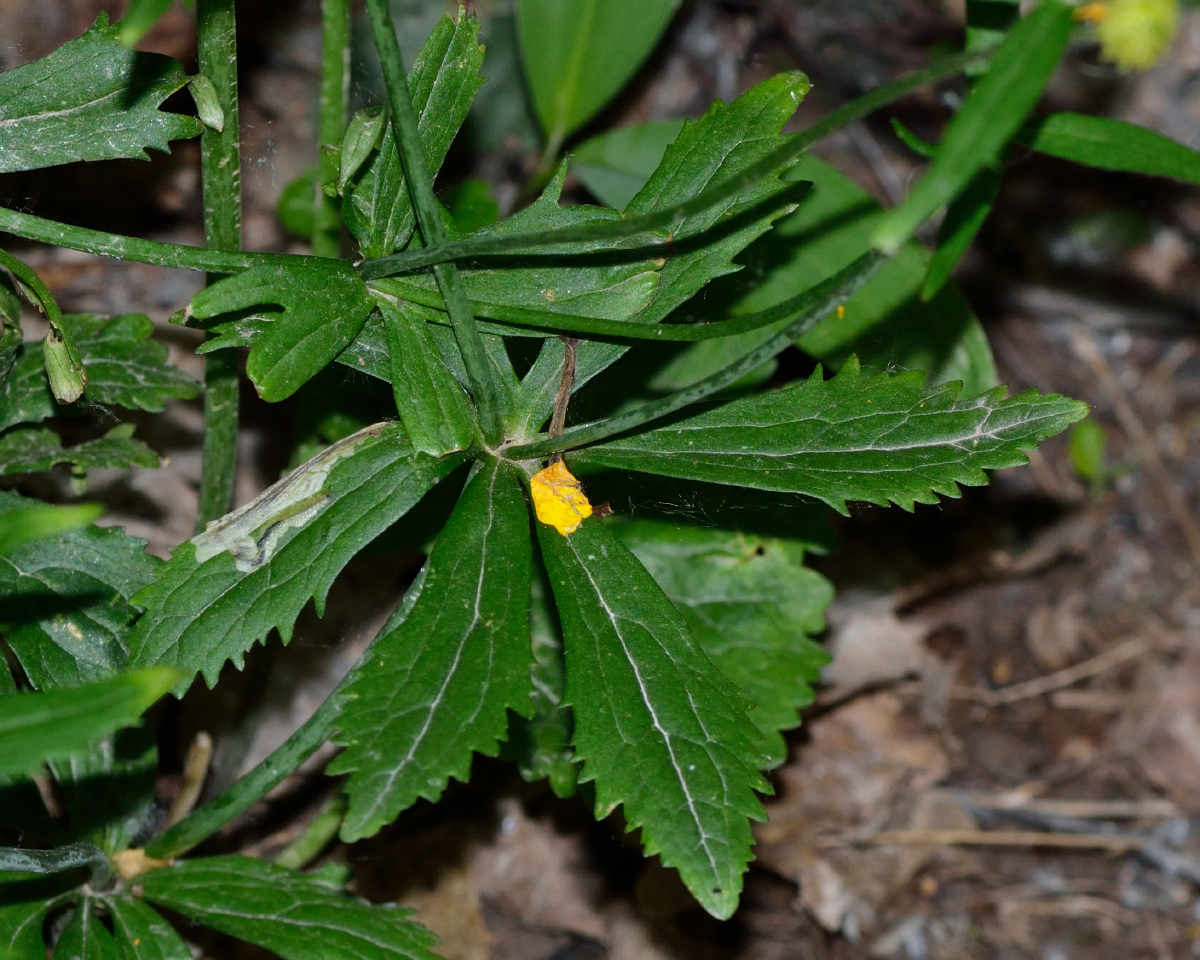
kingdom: Plantae
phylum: Tracheophyta
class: Magnoliopsida
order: Ranunculales
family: Ranunculaceae
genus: Ranunculus
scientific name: Ranunculus cassubicus
